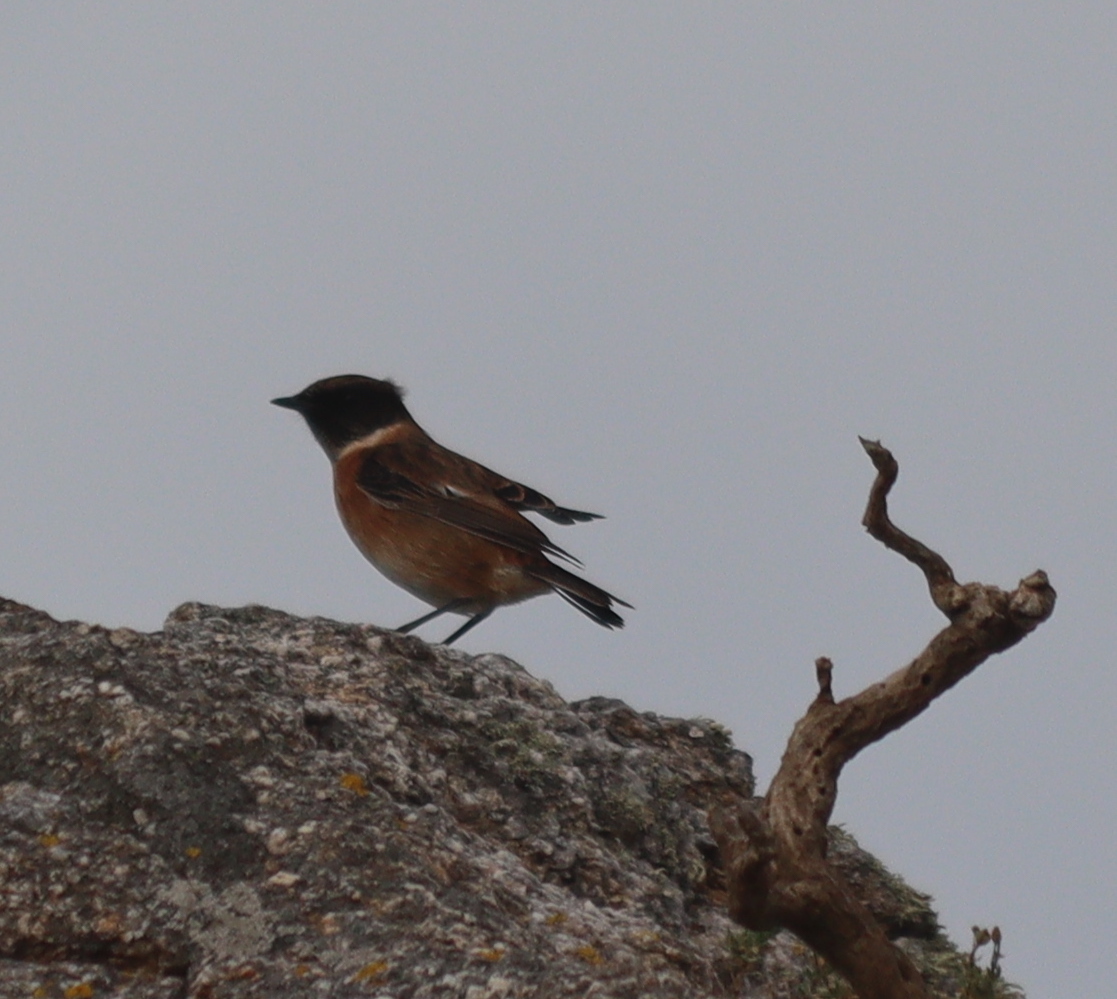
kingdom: Animalia
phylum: Chordata
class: Aves
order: Passeriformes
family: Muscicapidae
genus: Saxicola
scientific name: Saxicola rubicola
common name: European stonechat
